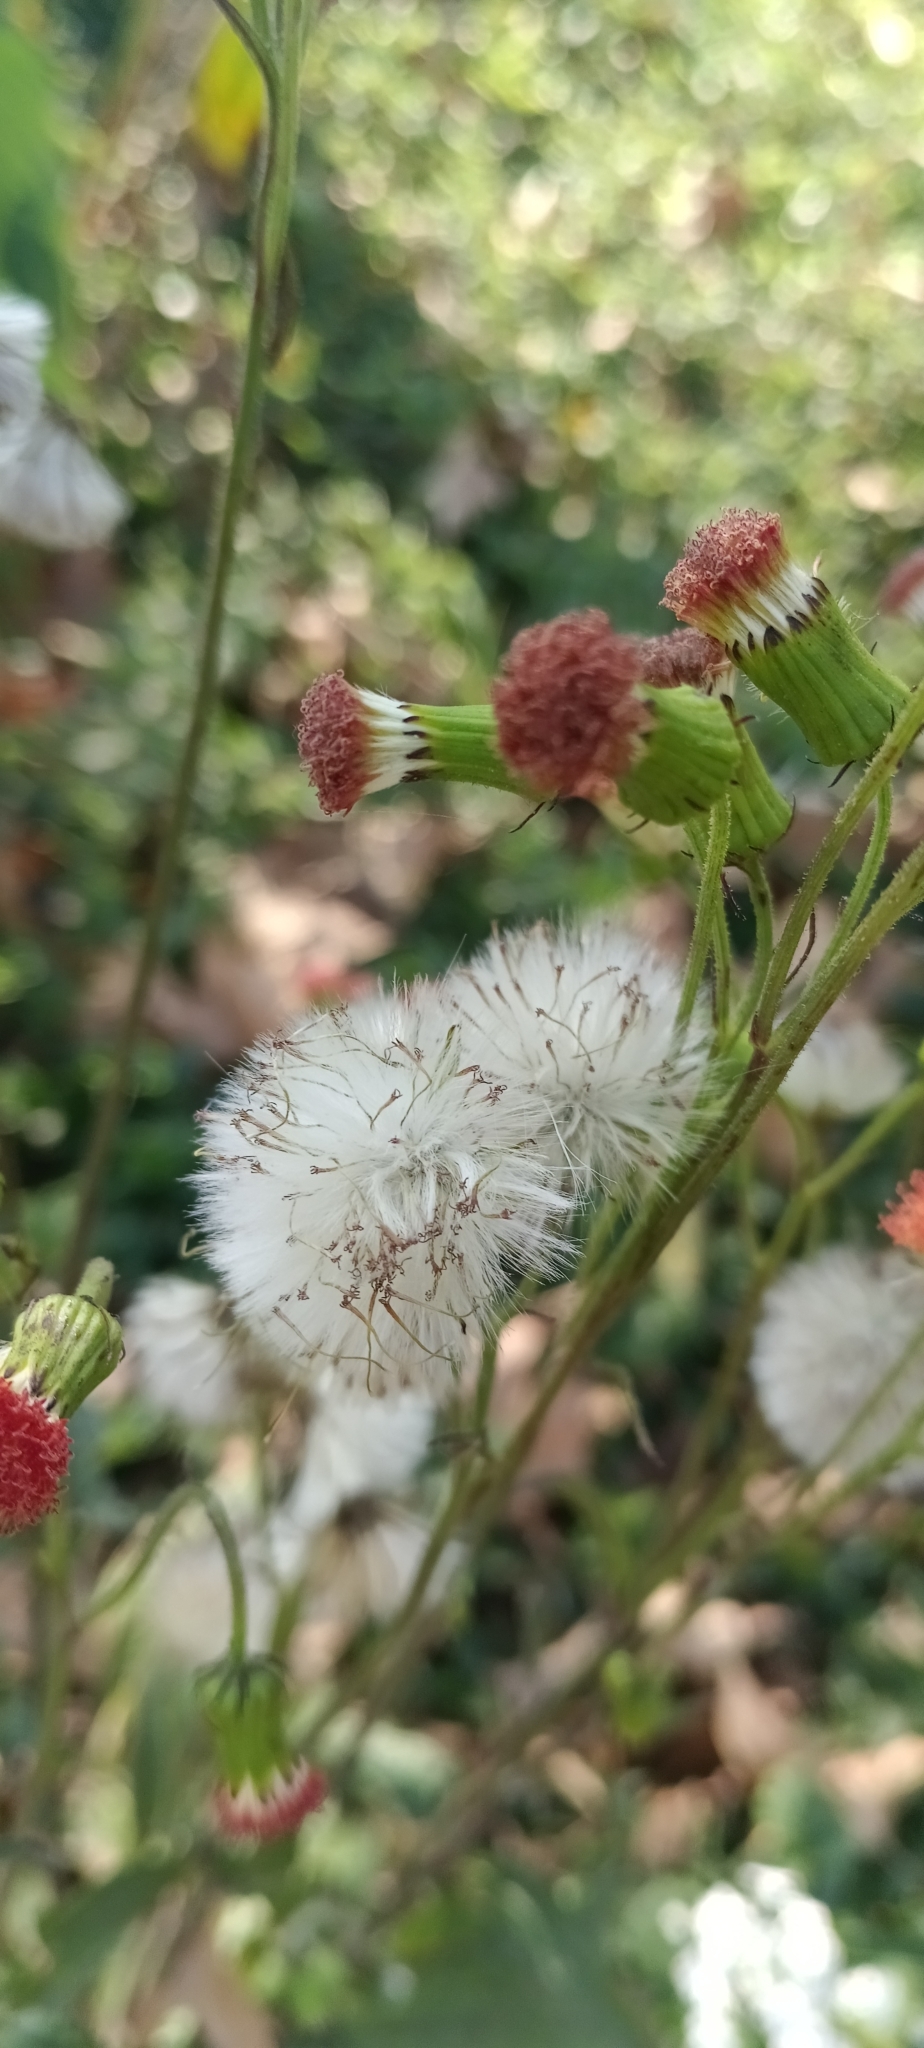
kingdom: Plantae
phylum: Tracheophyta
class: Magnoliopsida
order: Asterales
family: Asteraceae
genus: Crassocephalum
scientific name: Crassocephalum crepidioides
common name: Redflower ragleaf
